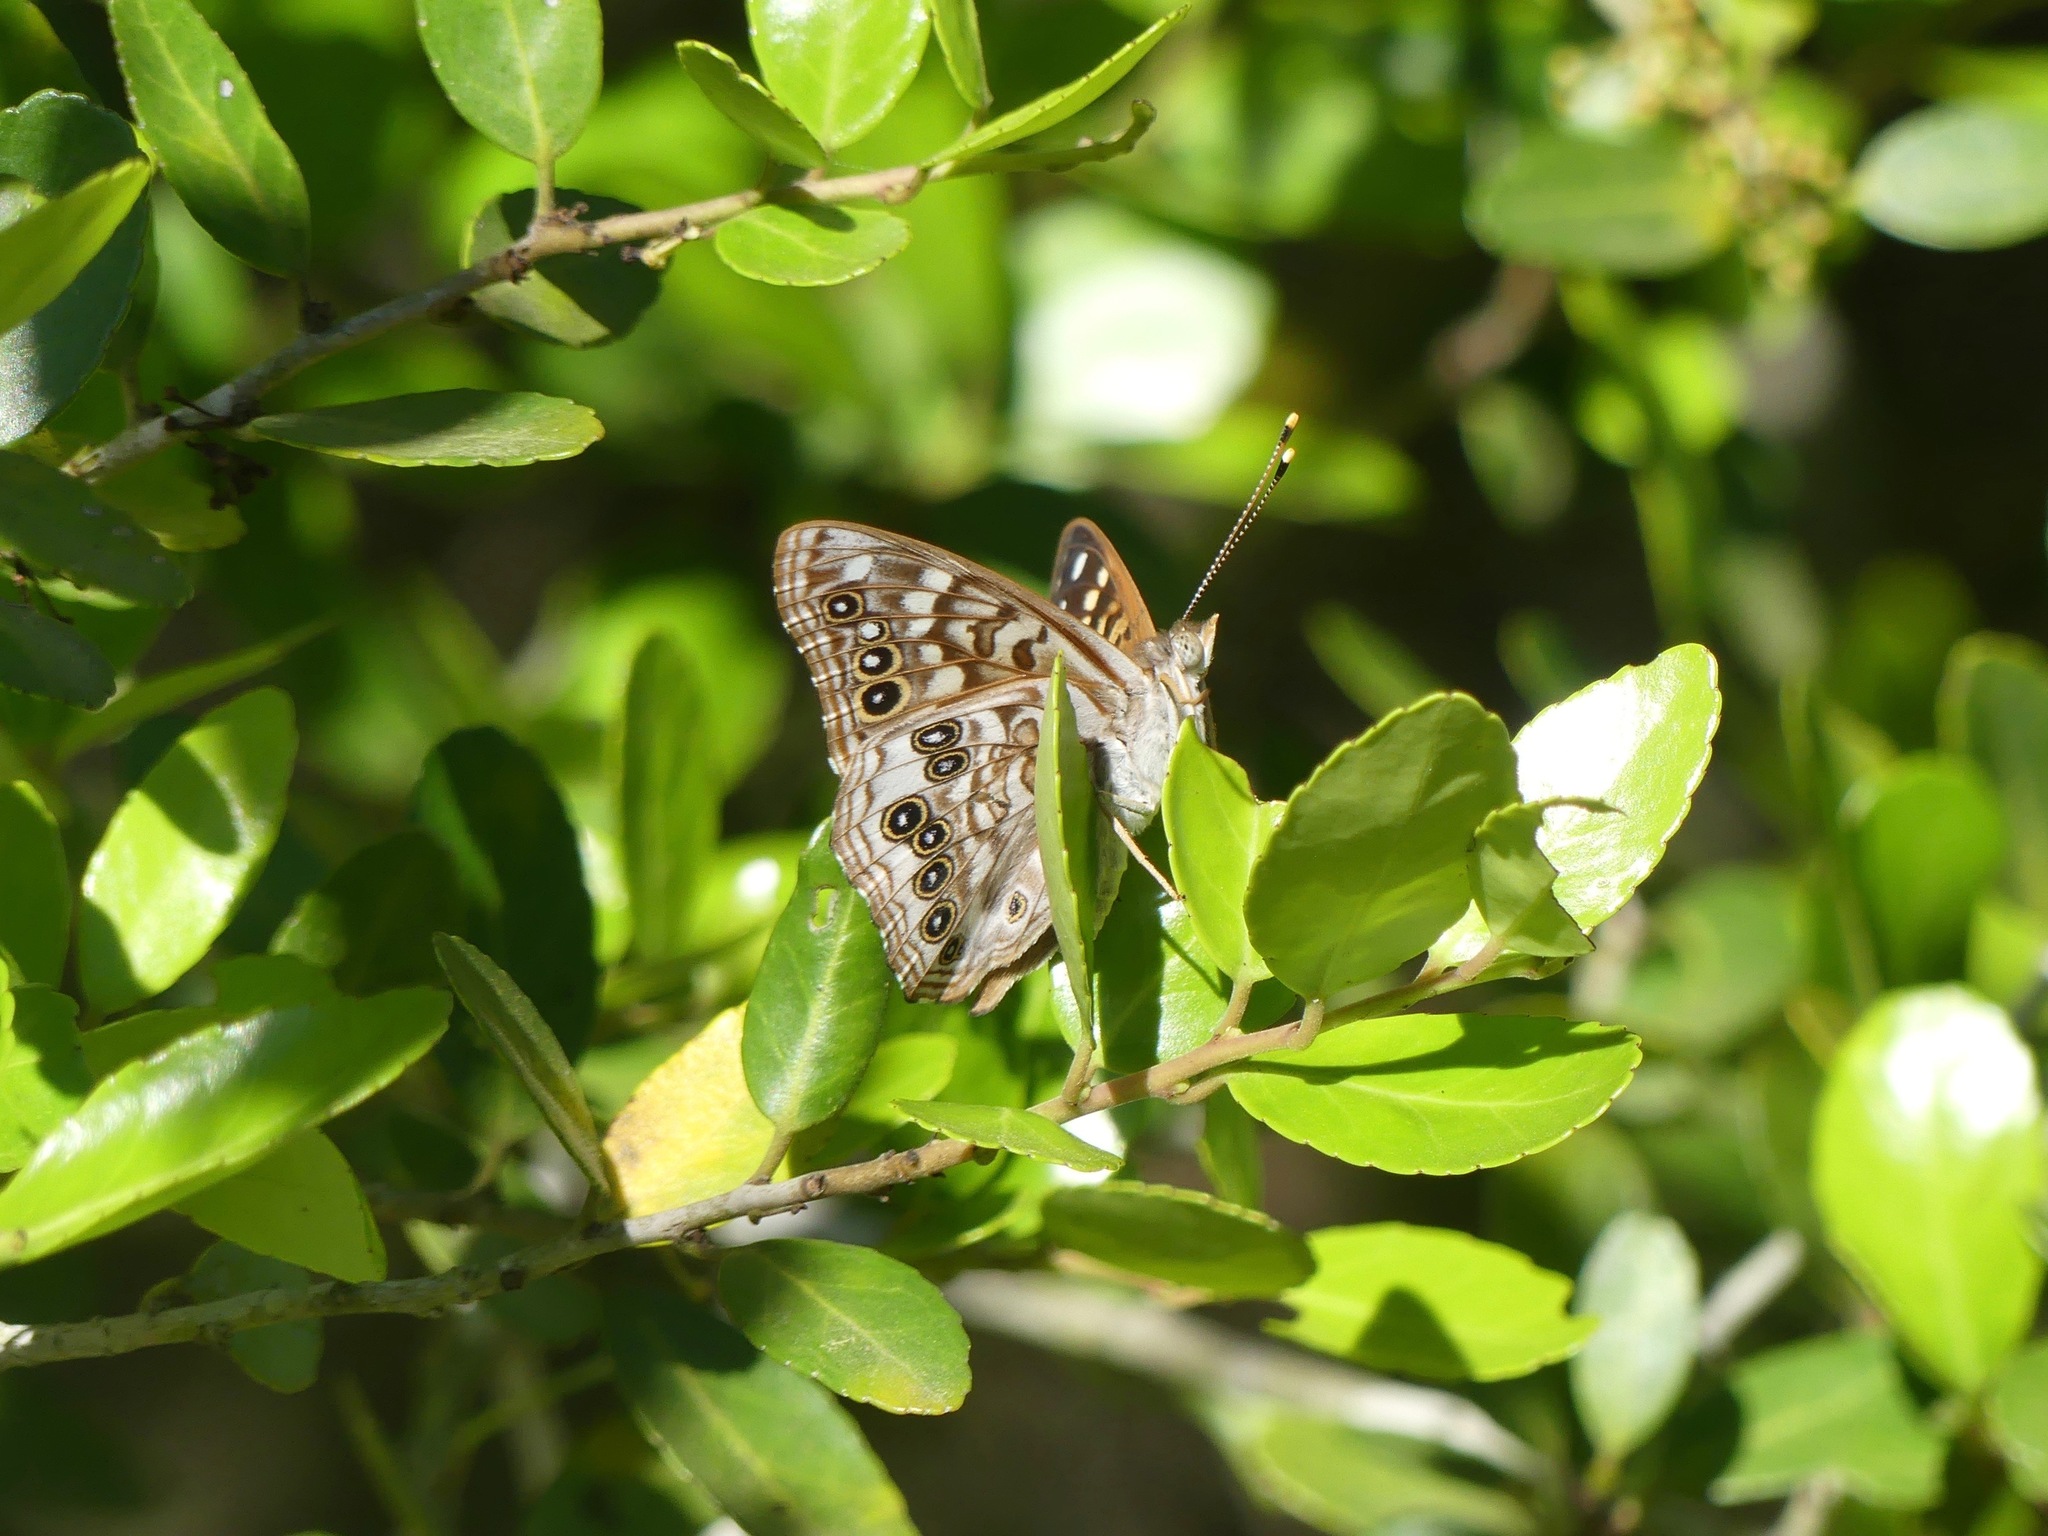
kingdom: Animalia
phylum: Arthropoda
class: Insecta
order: Lepidoptera
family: Nymphalidae
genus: Asterocampa
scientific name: Asterocampa celtis
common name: Hackberry emperor
